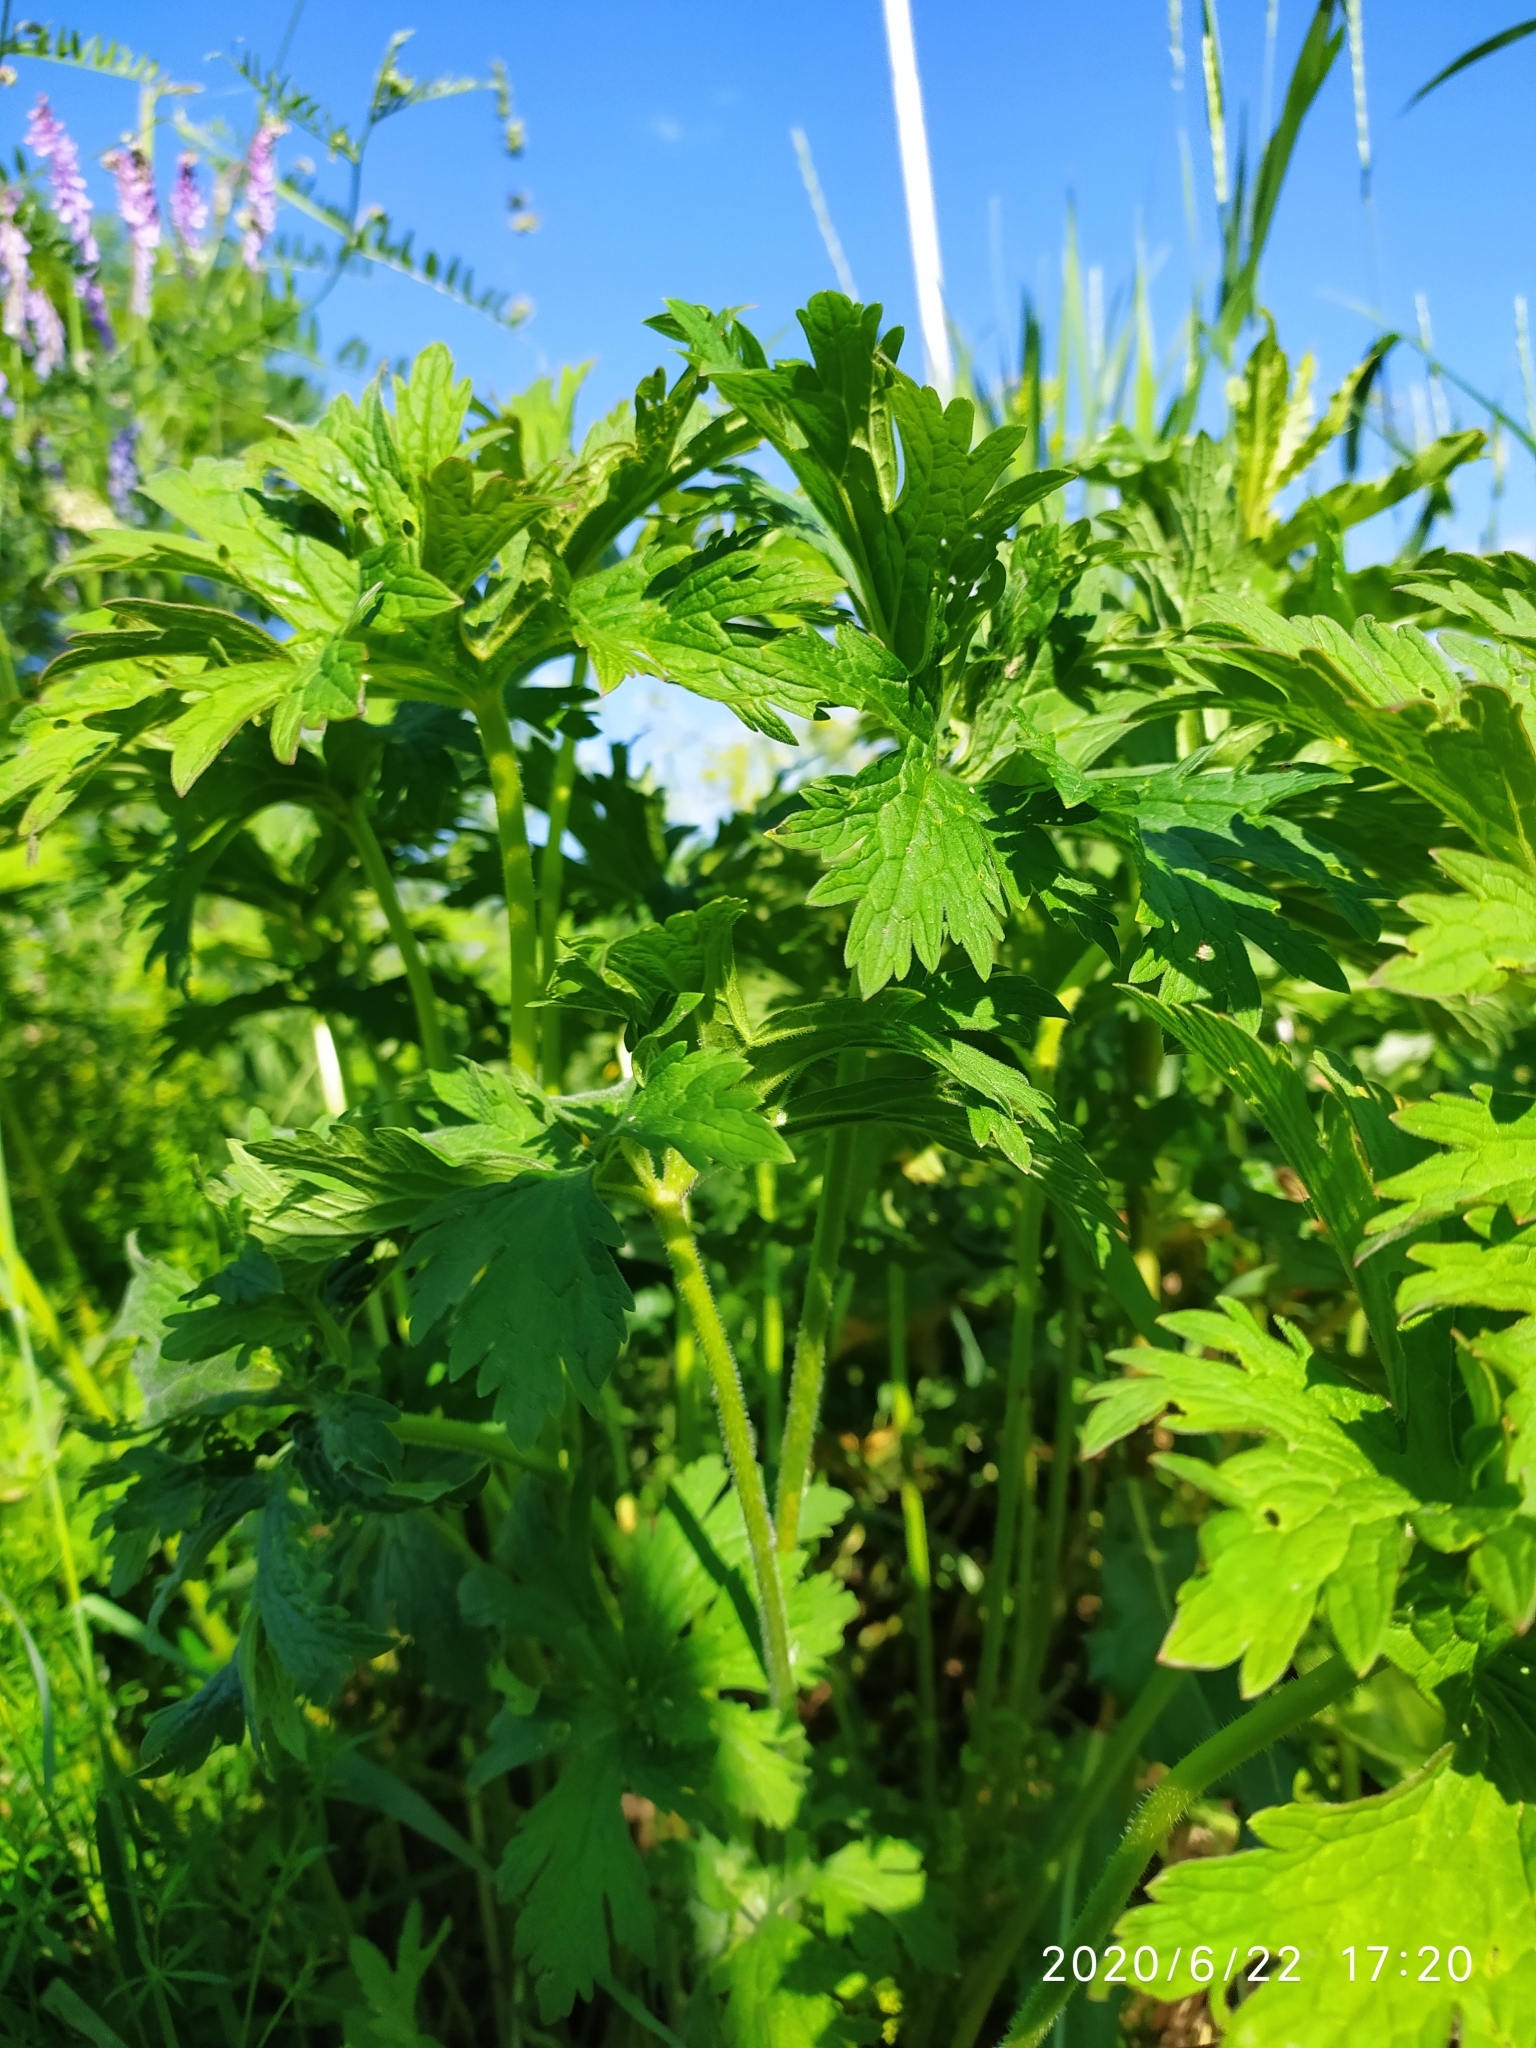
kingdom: Plantae
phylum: Tracheophyta
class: Magnoliopsida
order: Geraniales
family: Geraniaceae
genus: Geranium
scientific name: Geranium pratense
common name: Meadow crane's-bill
